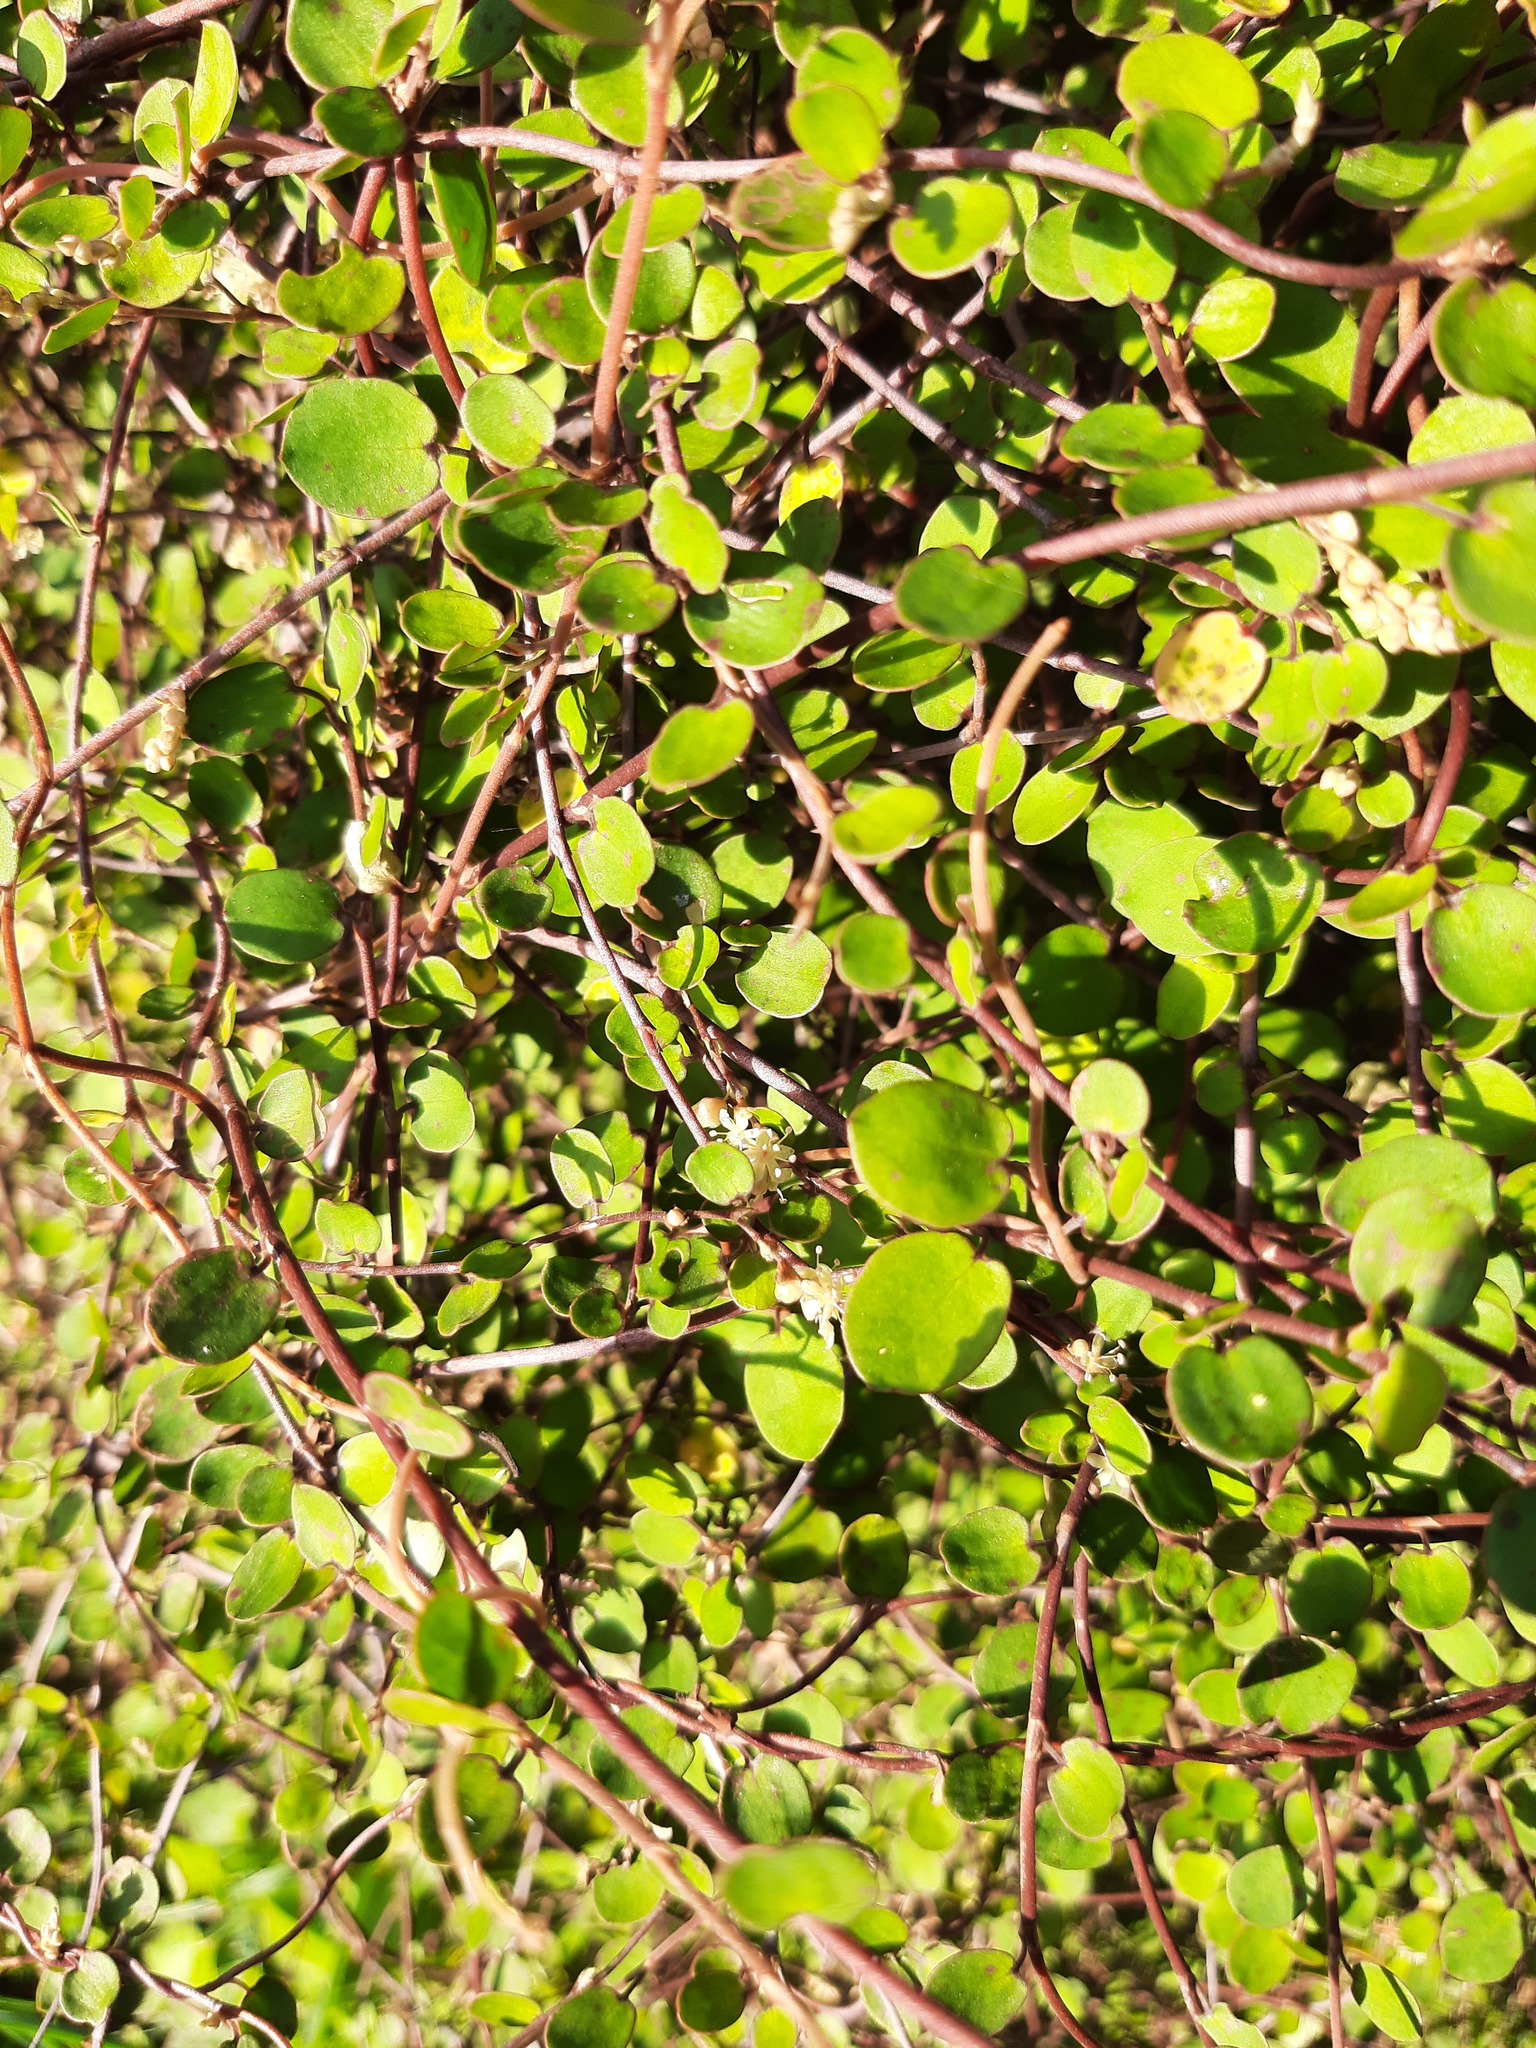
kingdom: Plantae
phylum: Tracheophyta
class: Magnoliopsida
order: Caryophyllales
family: Polygonaceae
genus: Muehlenbeckia
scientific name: Muehlenbeckia complexa
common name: Wireplant
